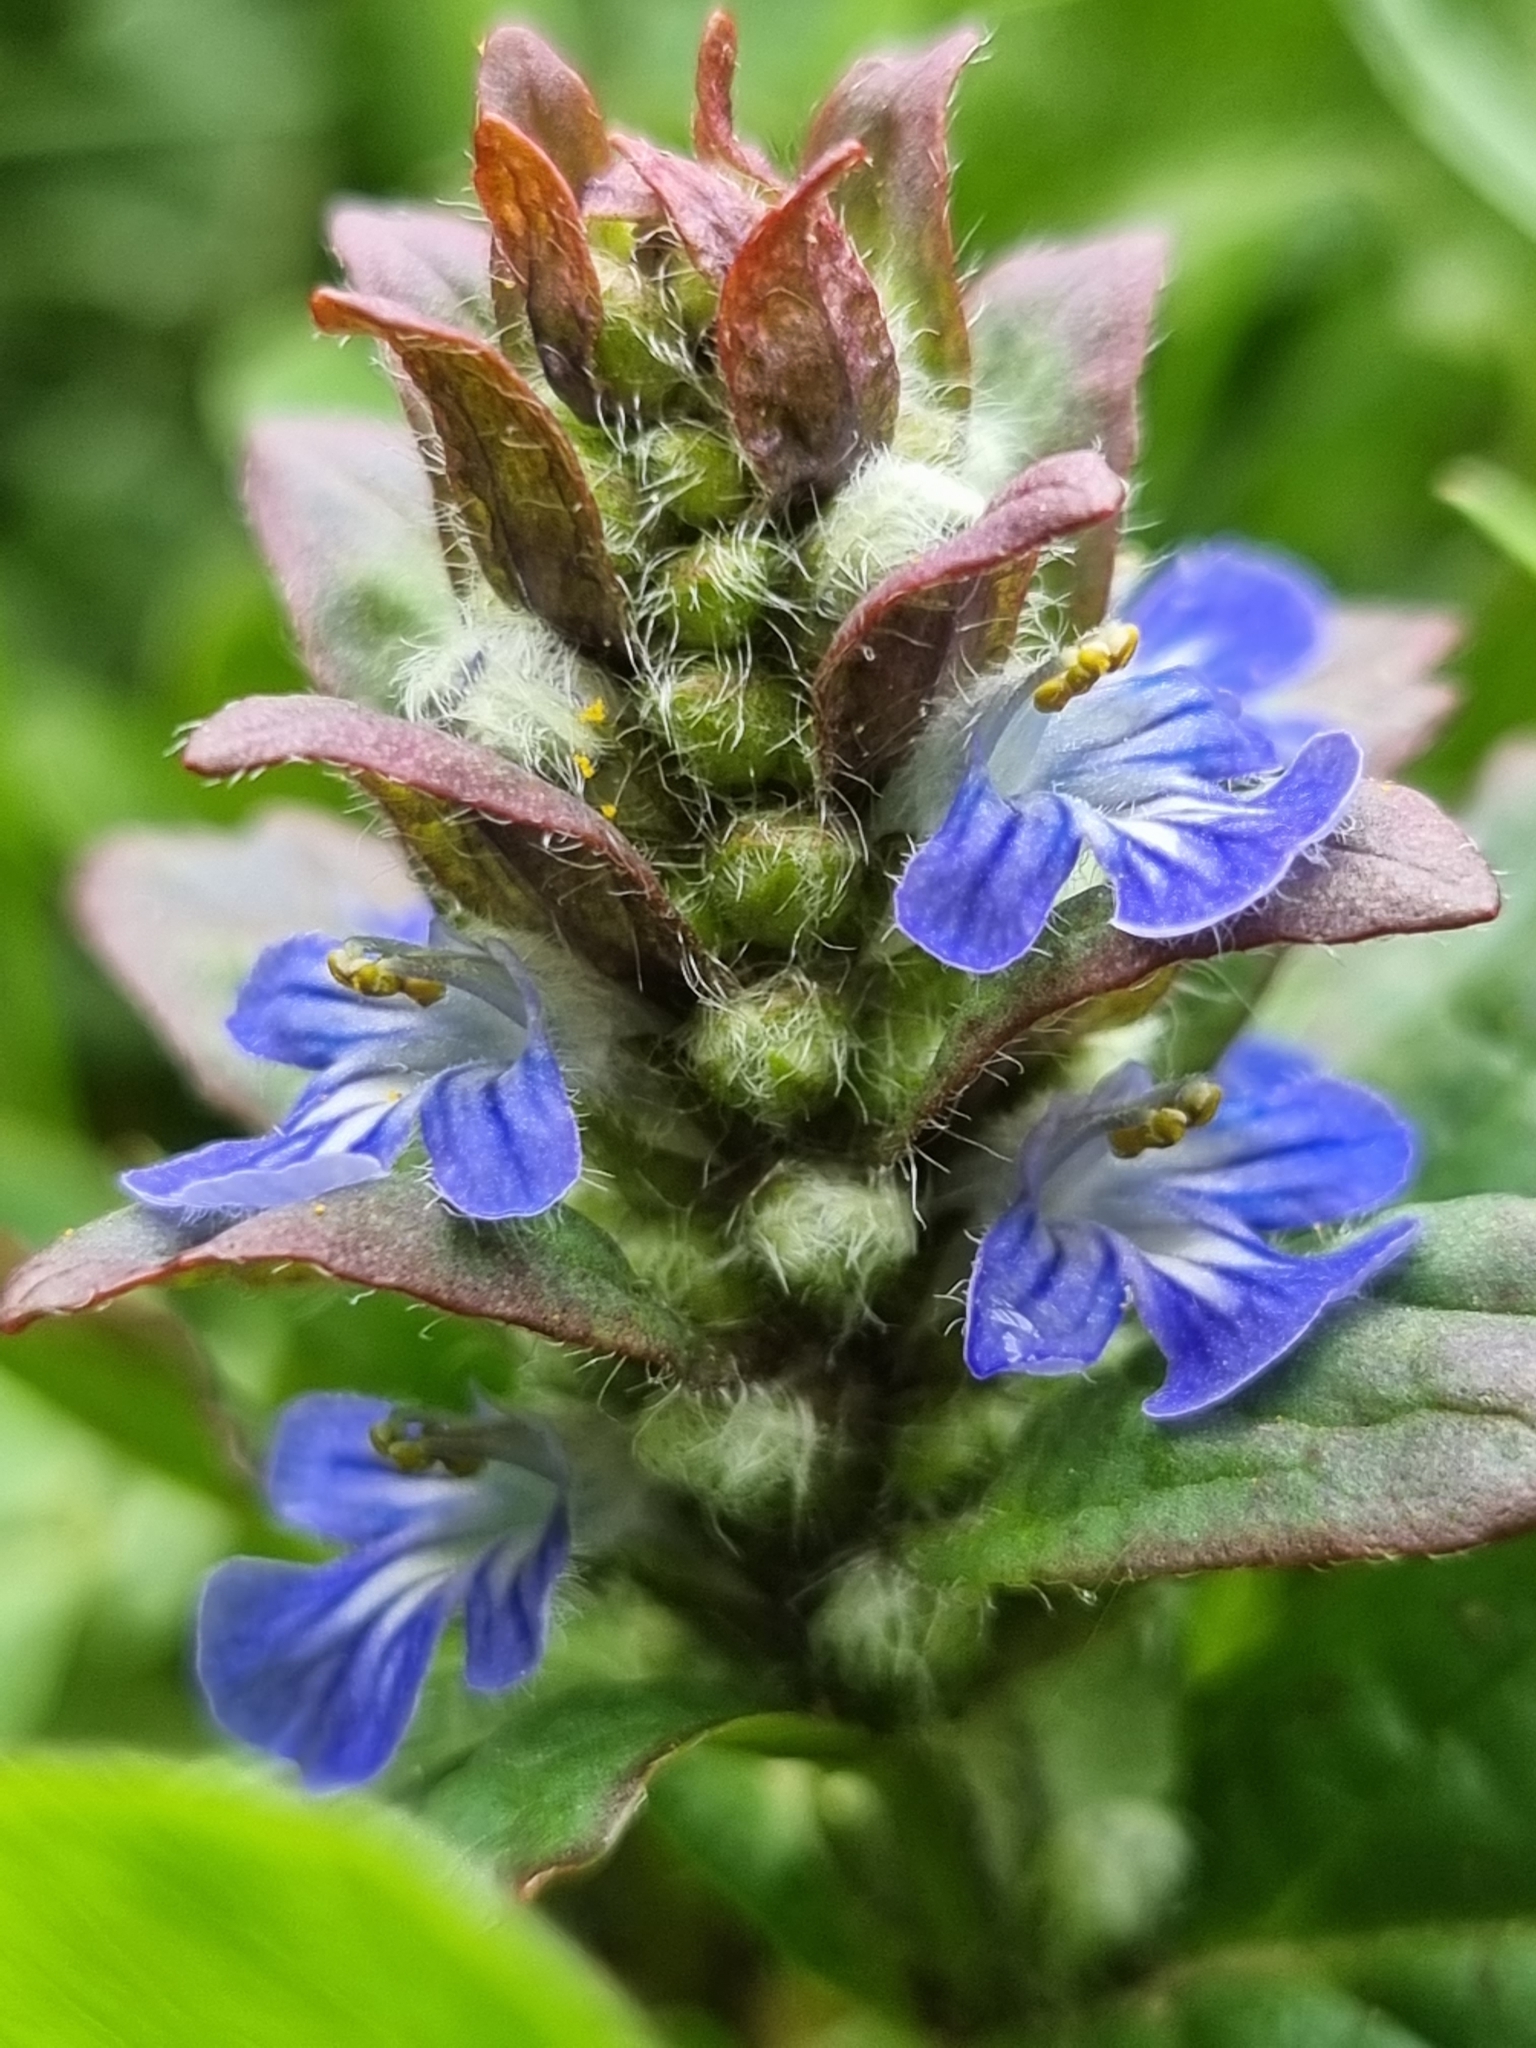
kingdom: Plantae
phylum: Tracheophyta
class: Magnoliopsida
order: Lamiales
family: Lamiaceae
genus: Ajuga
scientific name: Ajuga reptans
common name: Bugle
